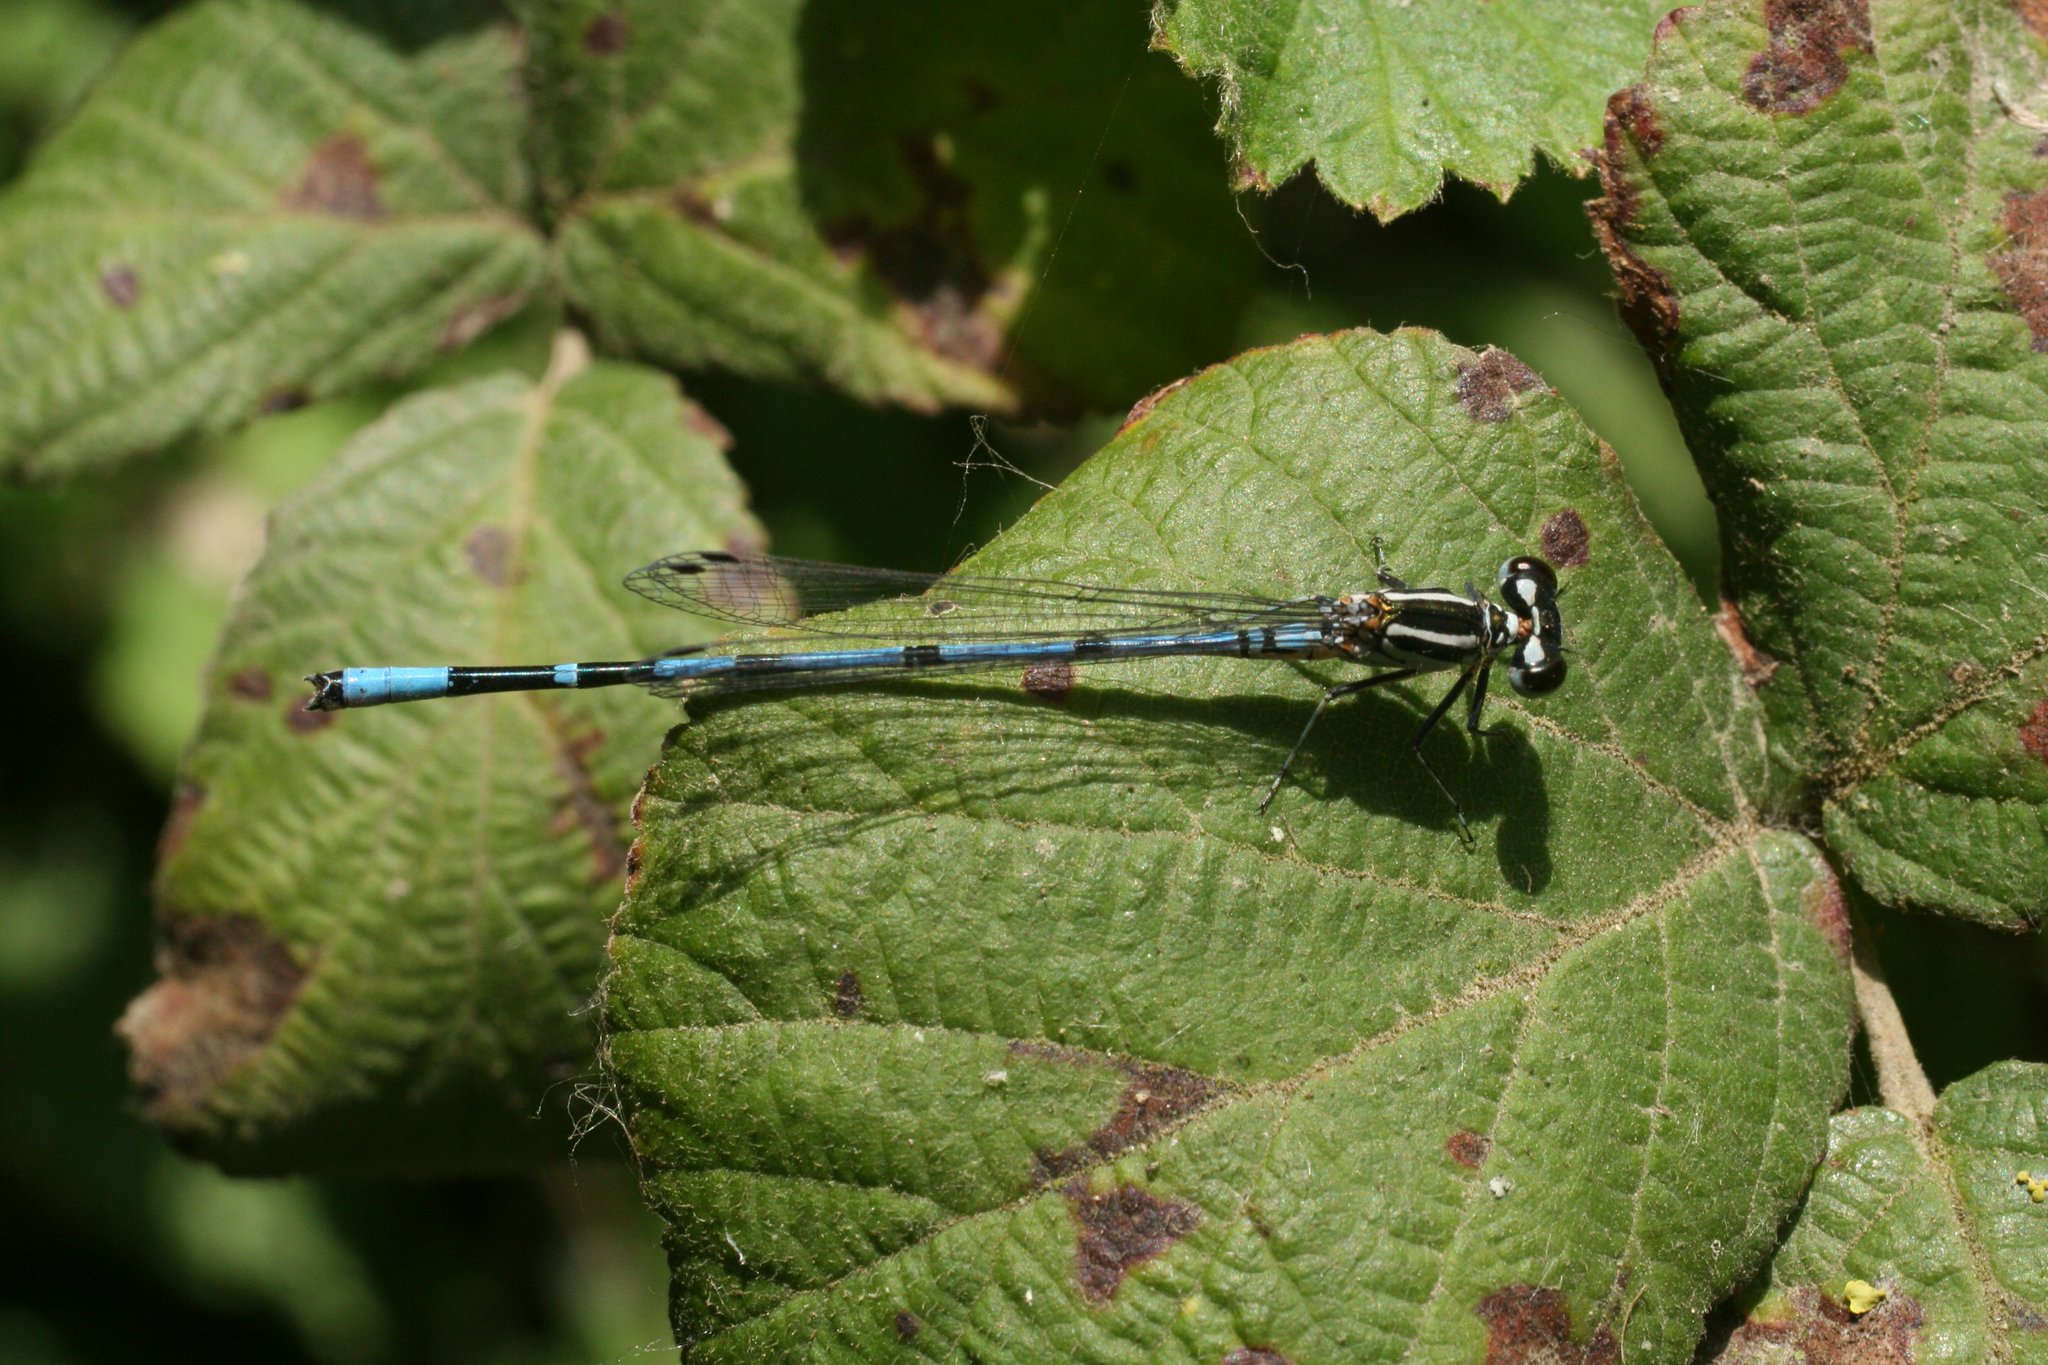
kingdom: Animalia
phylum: Arthropoda
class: Insecta
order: Odonata
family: Coenagrionidae
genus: Coenagrion
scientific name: Coenagrion australocaspicum
